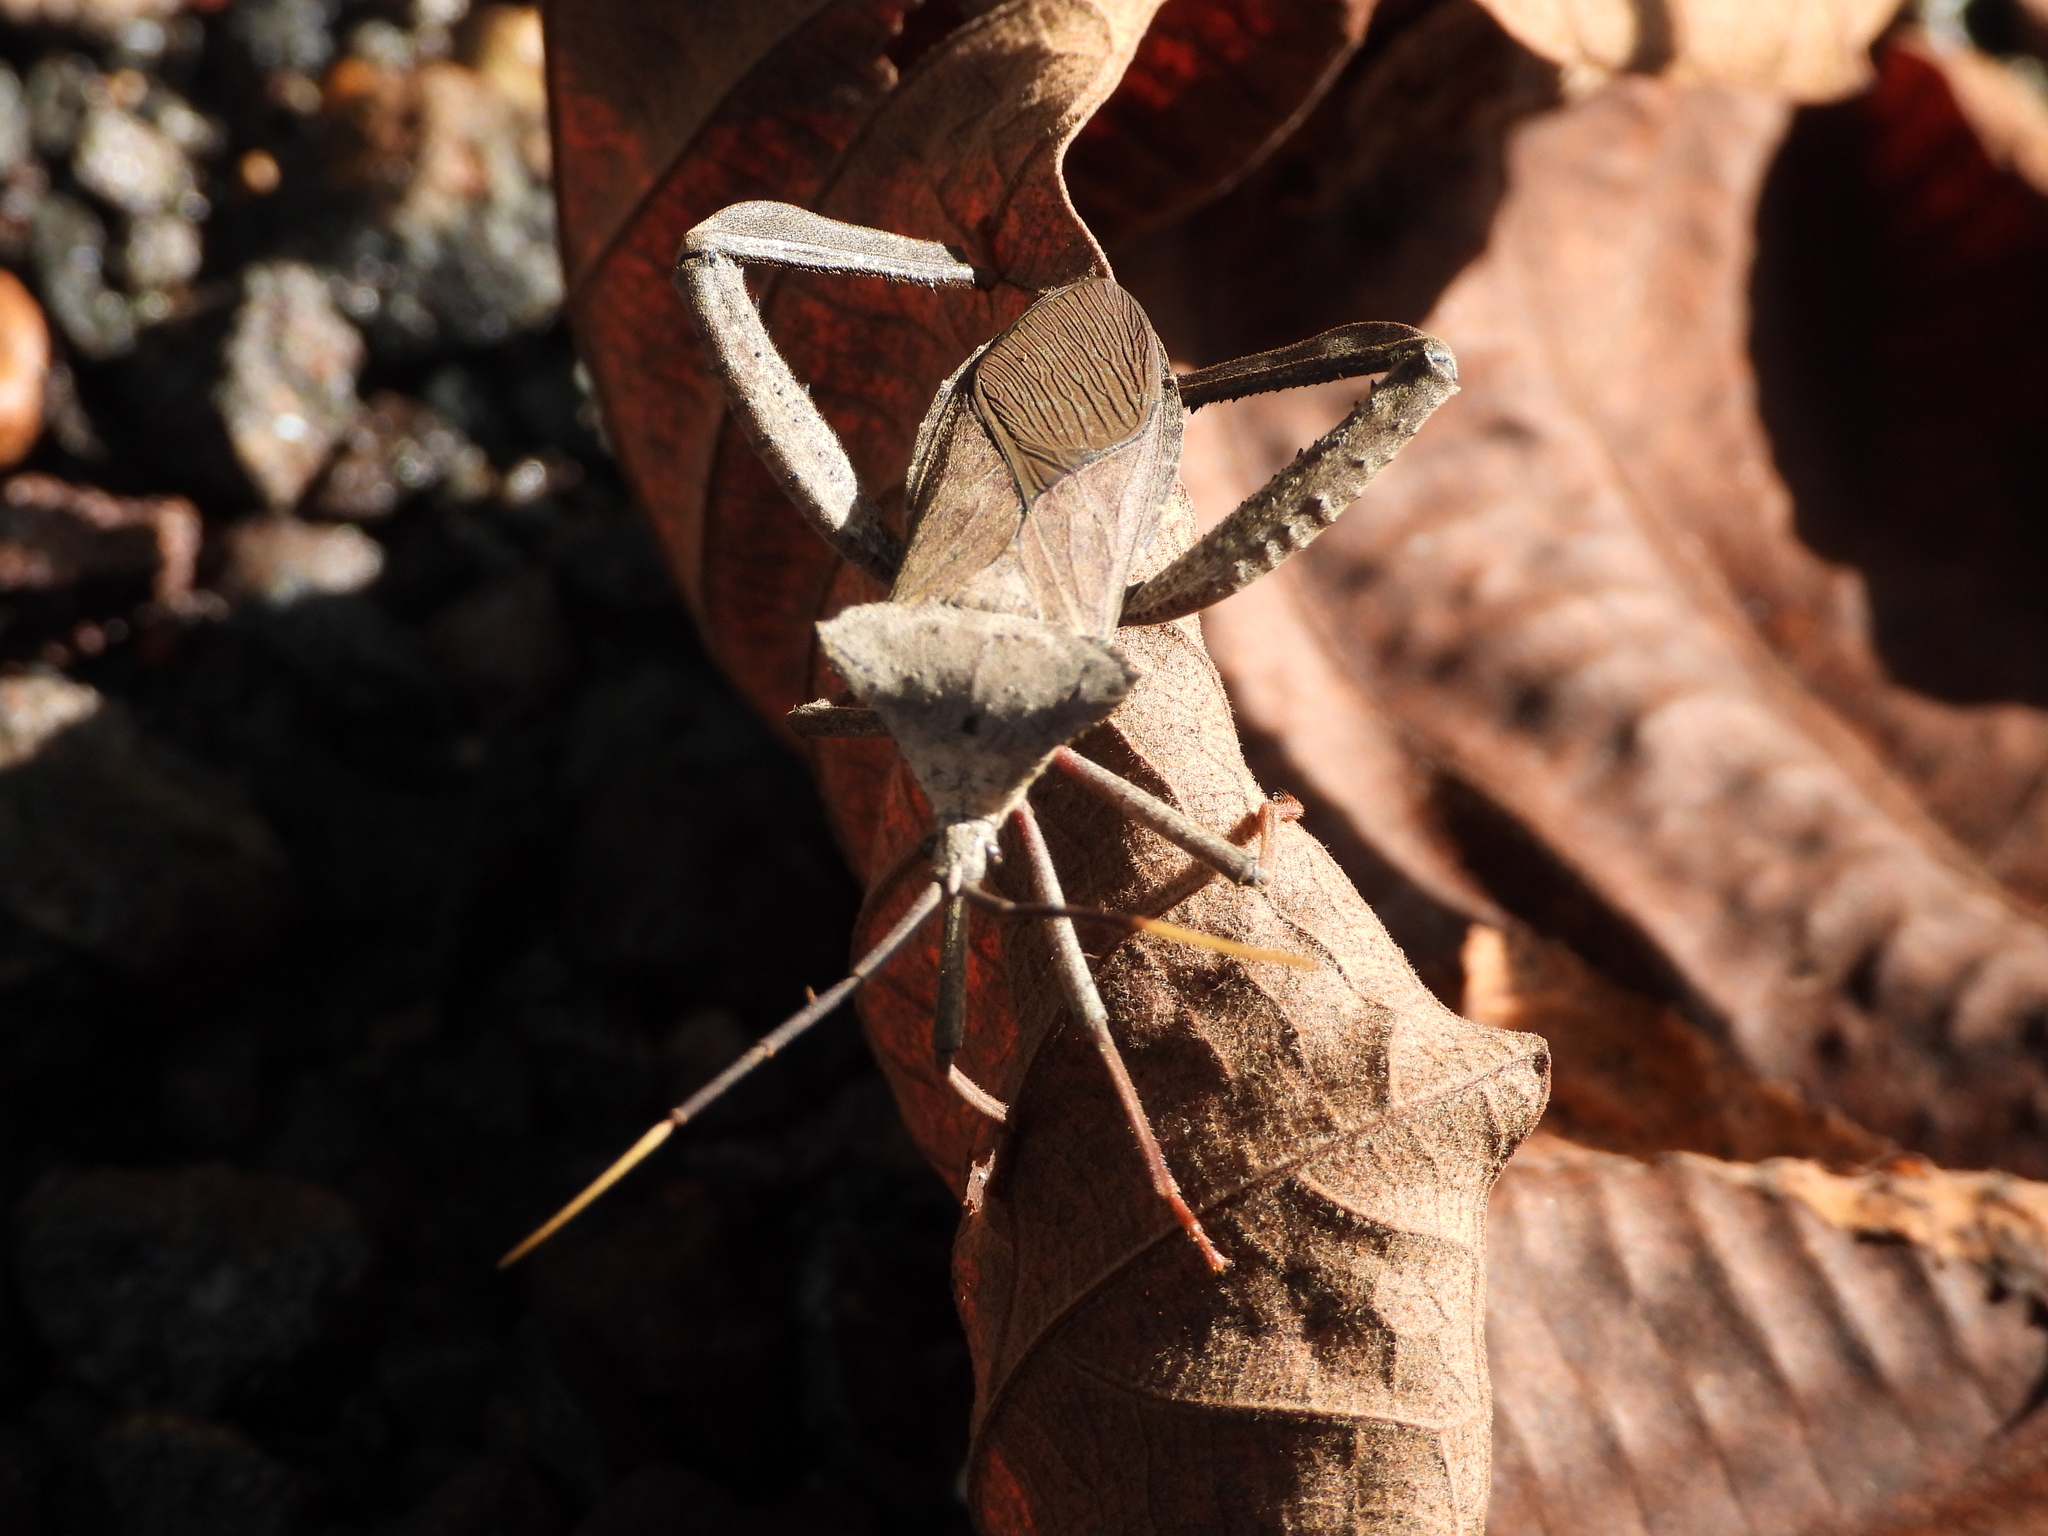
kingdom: Animalia
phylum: Arthropoda
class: Insecta
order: Hemiptera
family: Coreidae
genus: Acanthocephala
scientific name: Acanthocephala alata
